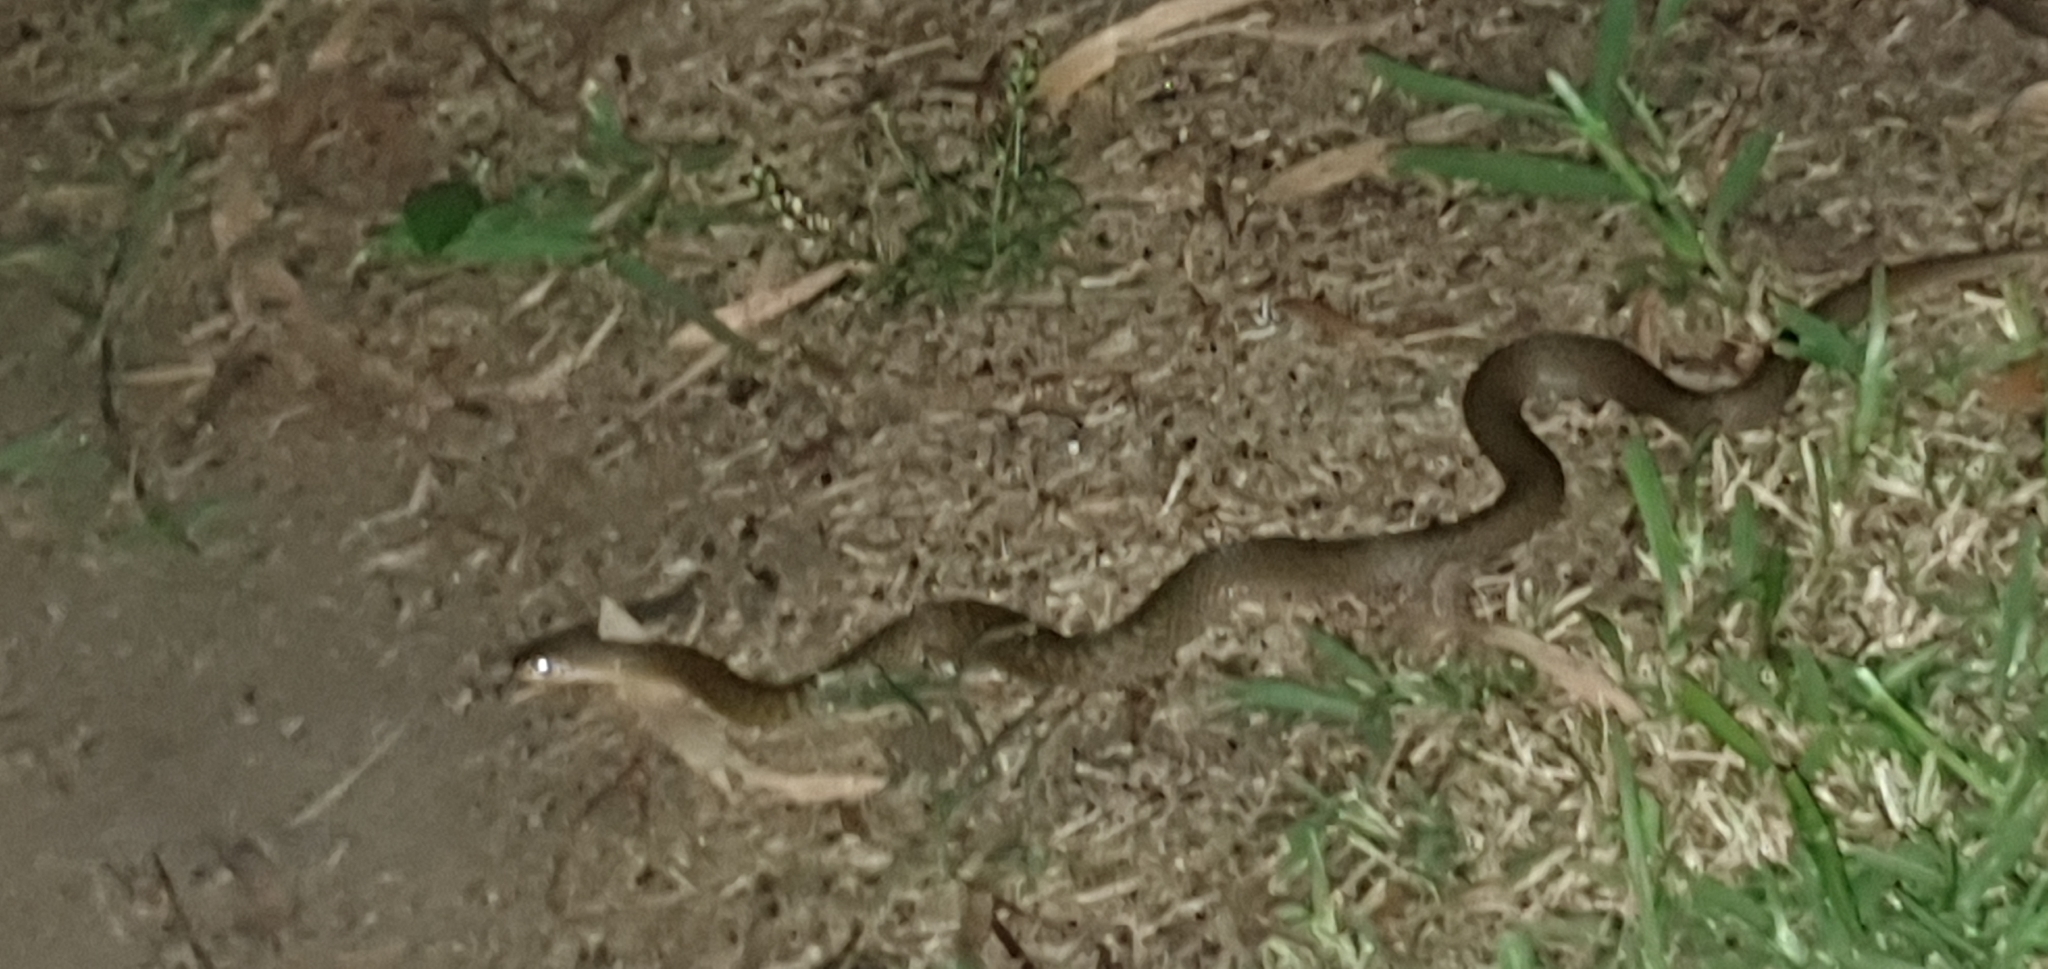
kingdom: Animalia
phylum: Chordata
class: Squamata
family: Colubridae
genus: Tropidonophis
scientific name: Tropidonophis mairii
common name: Common keelback
